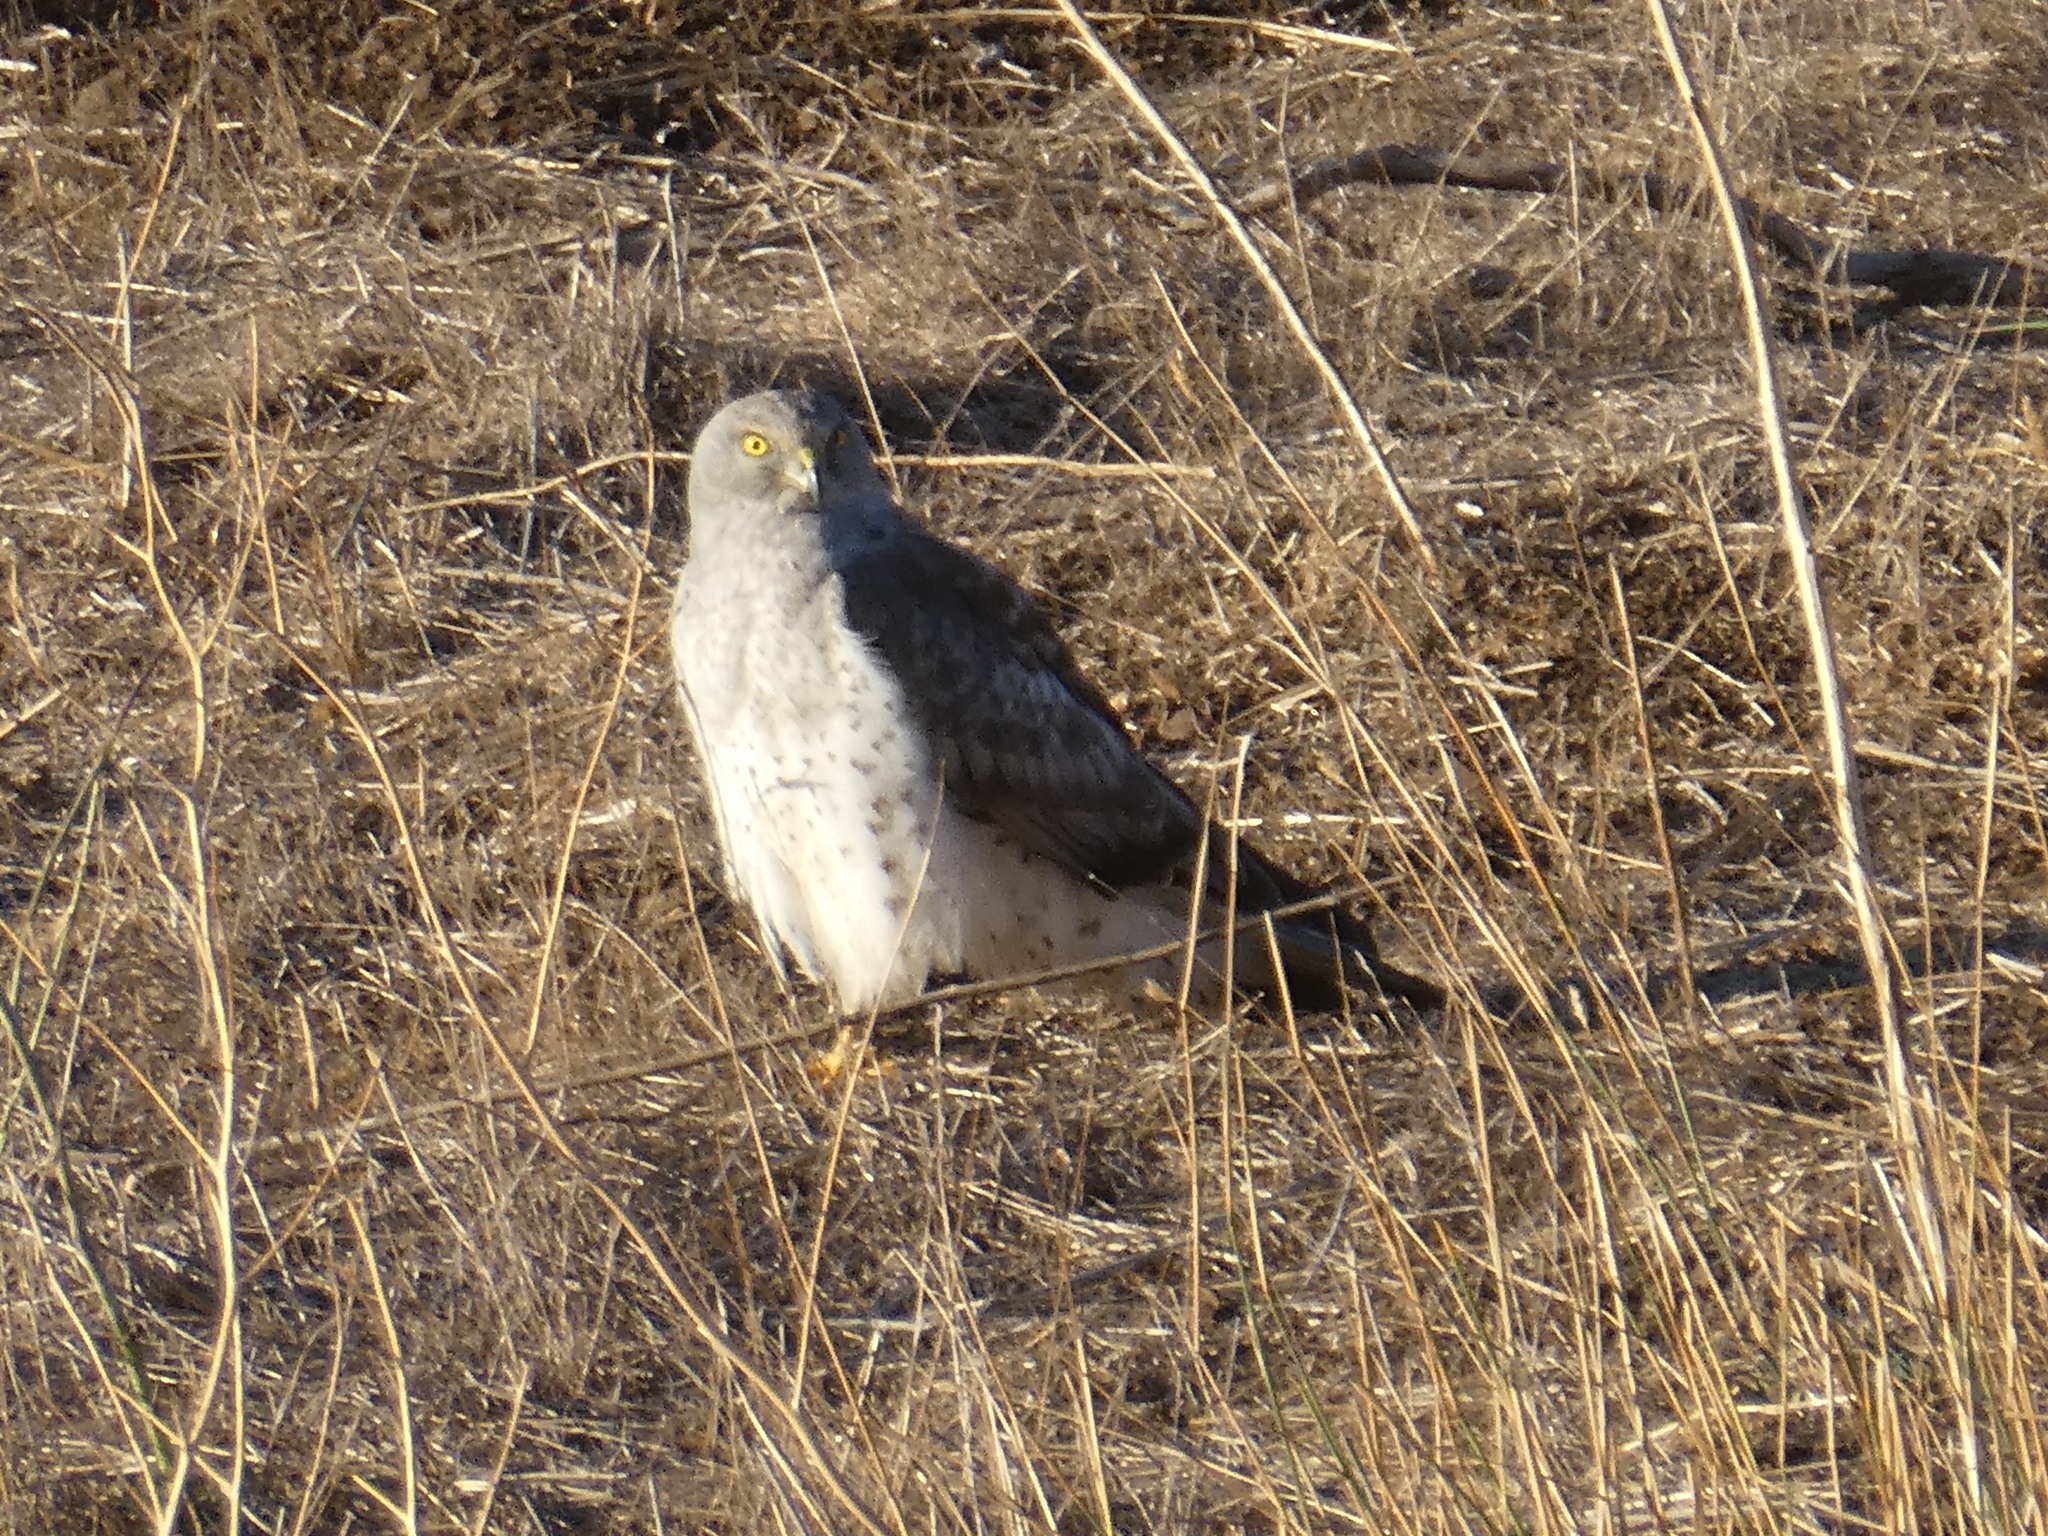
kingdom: Animalia
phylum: Chordata
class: Aves
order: Accipitriformes
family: Accipitridae
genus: Circus
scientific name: Circus cyaneus
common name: Hen harrier
